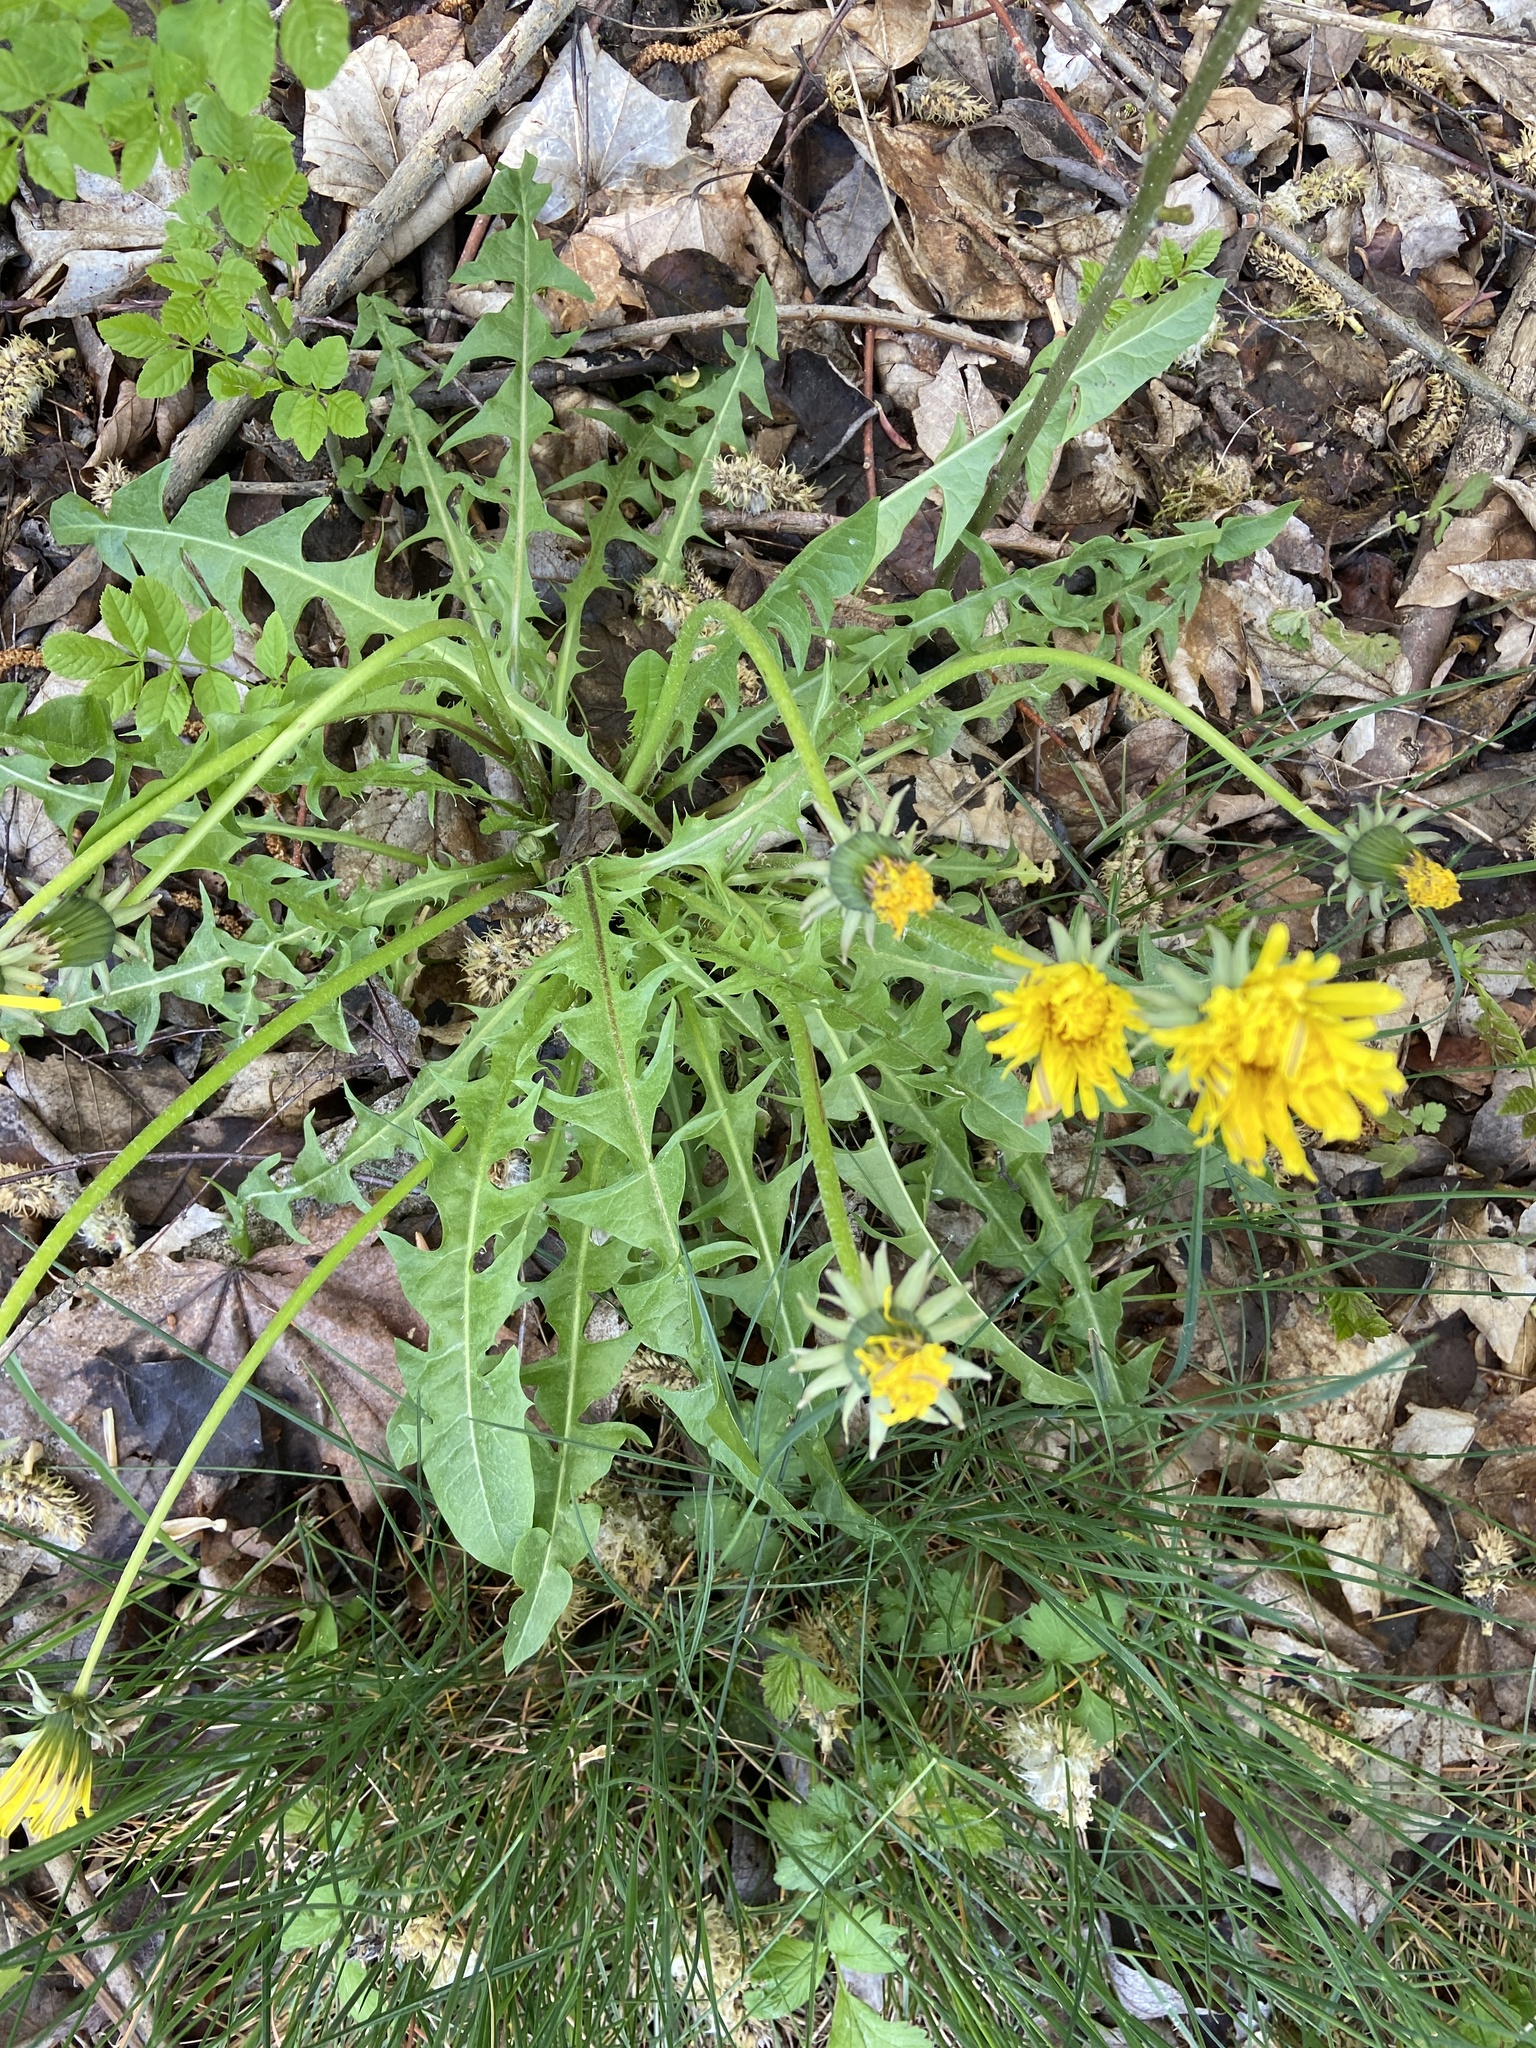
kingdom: Plantae
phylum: Tracheophyta
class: Magnoliopsida
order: Asterales
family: Asteraceae
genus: Taraxacum
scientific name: Taraxacum officinale
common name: Common dandelion
